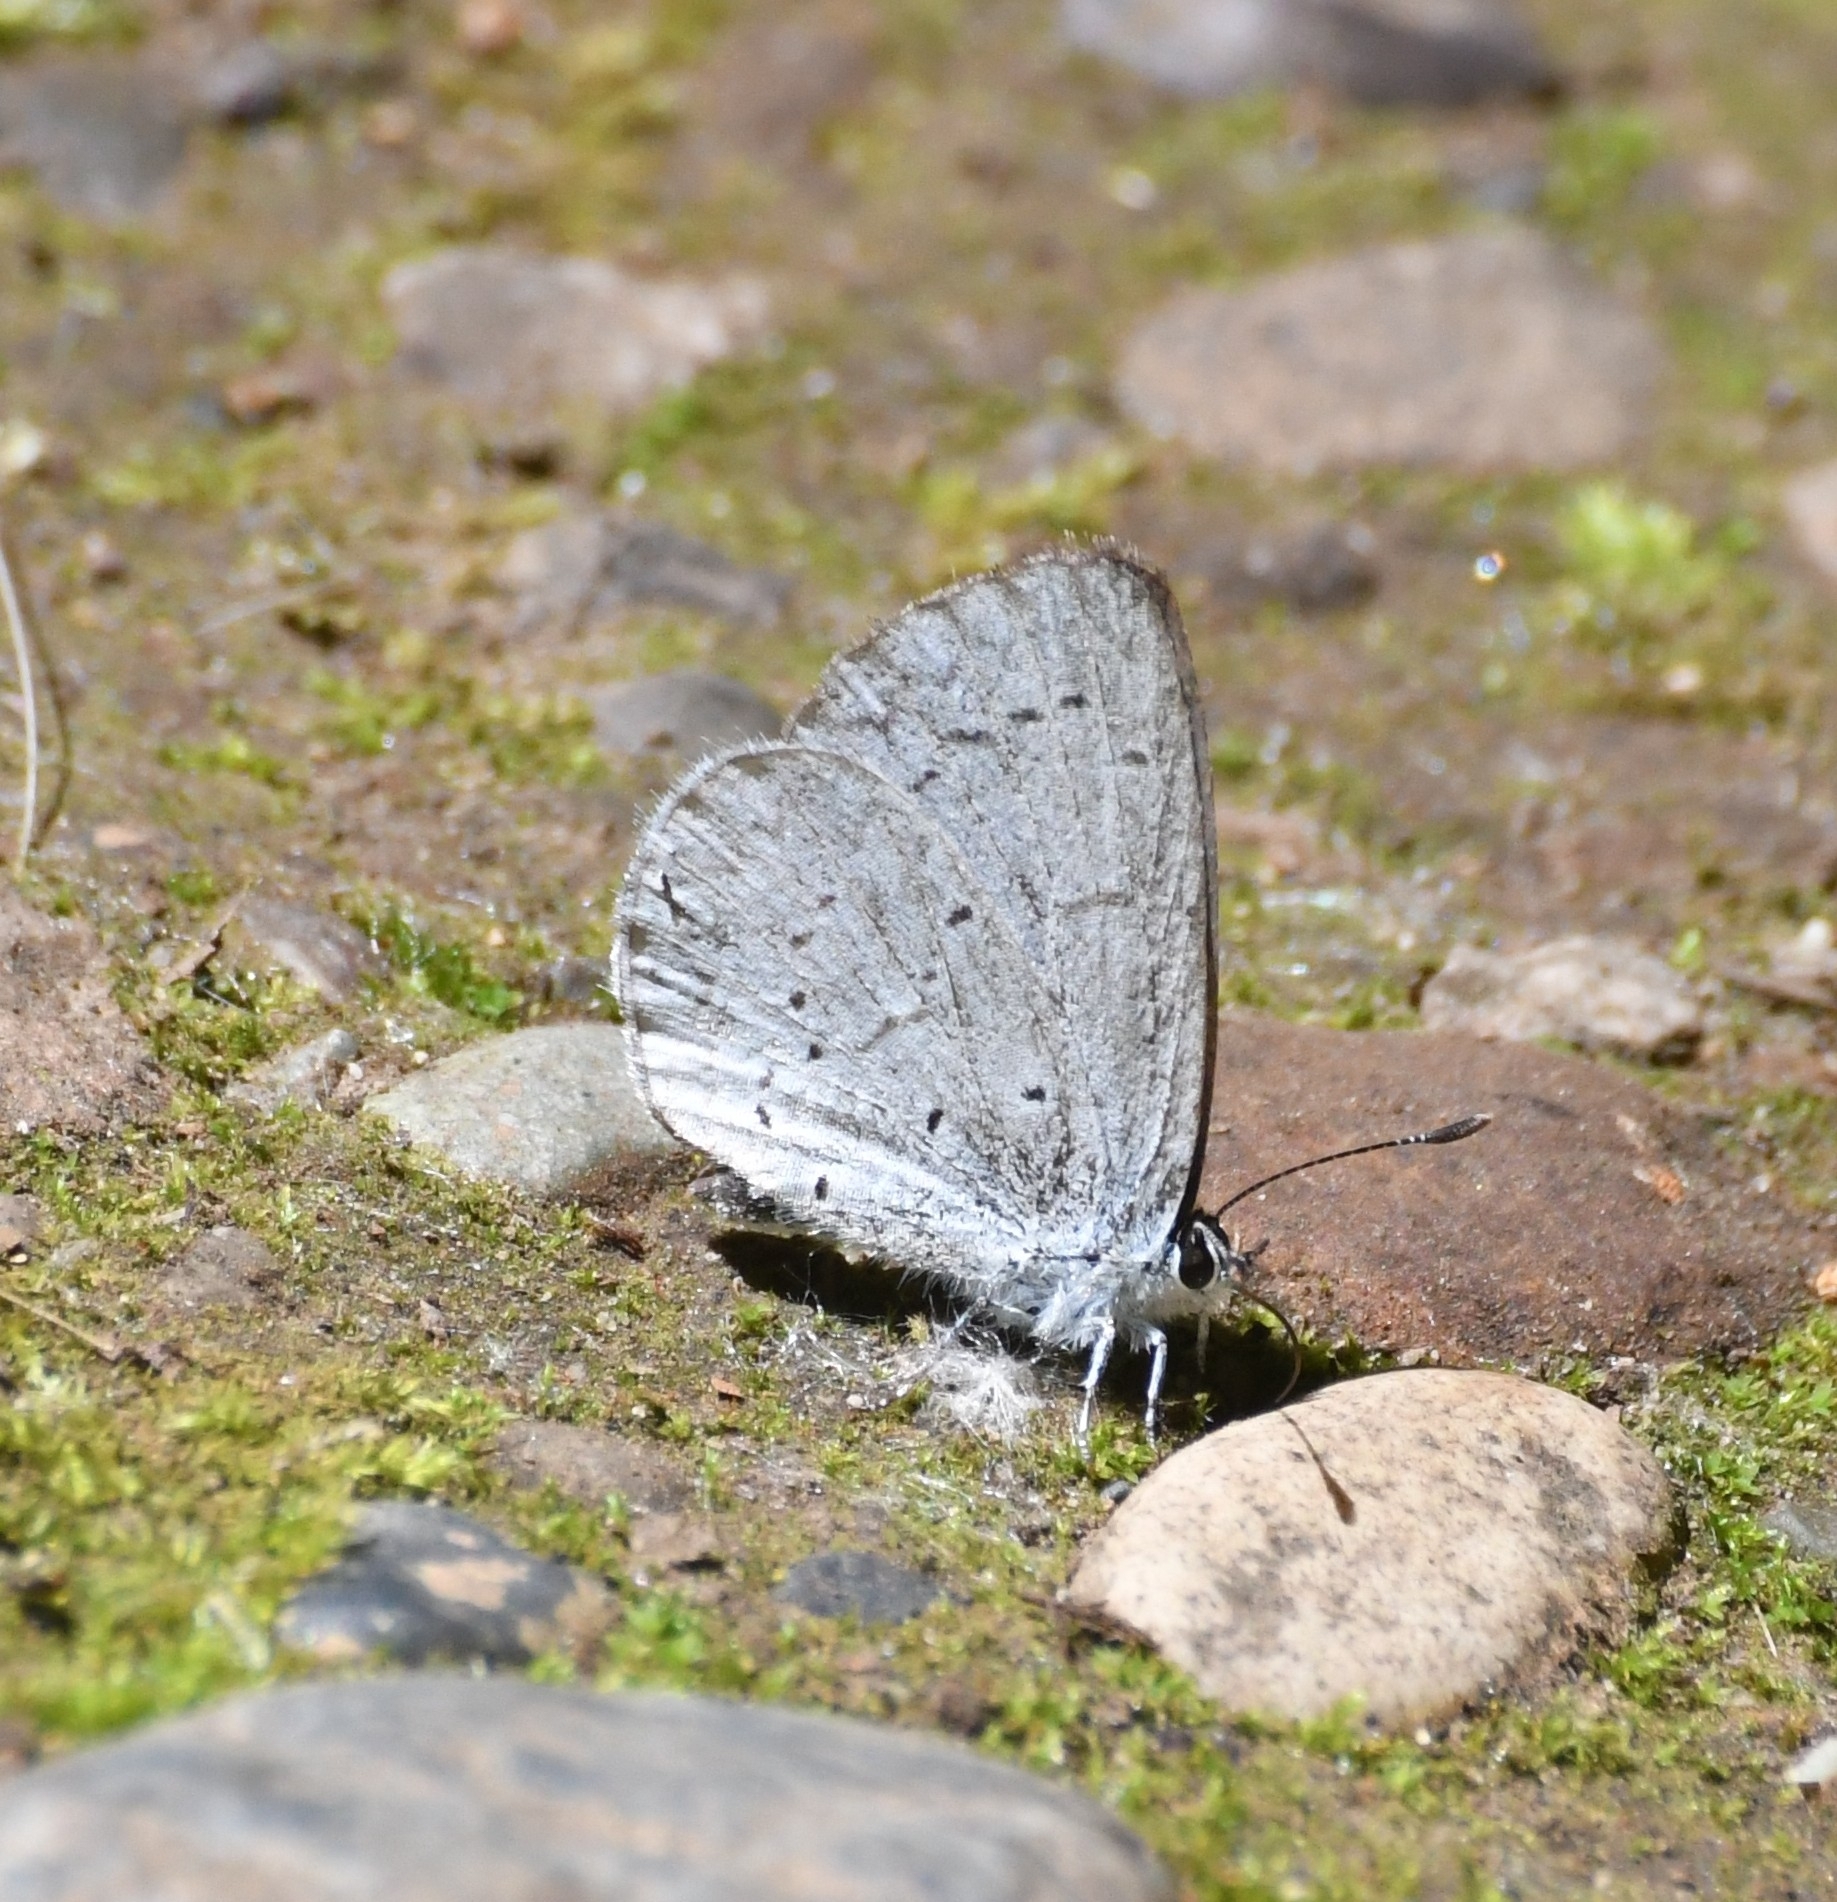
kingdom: Animalia
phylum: Arthropoda
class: Insecta
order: Lepidoptera
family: Lycaenidae
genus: Celastrina
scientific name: Celastrina ladon
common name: Spring azure
